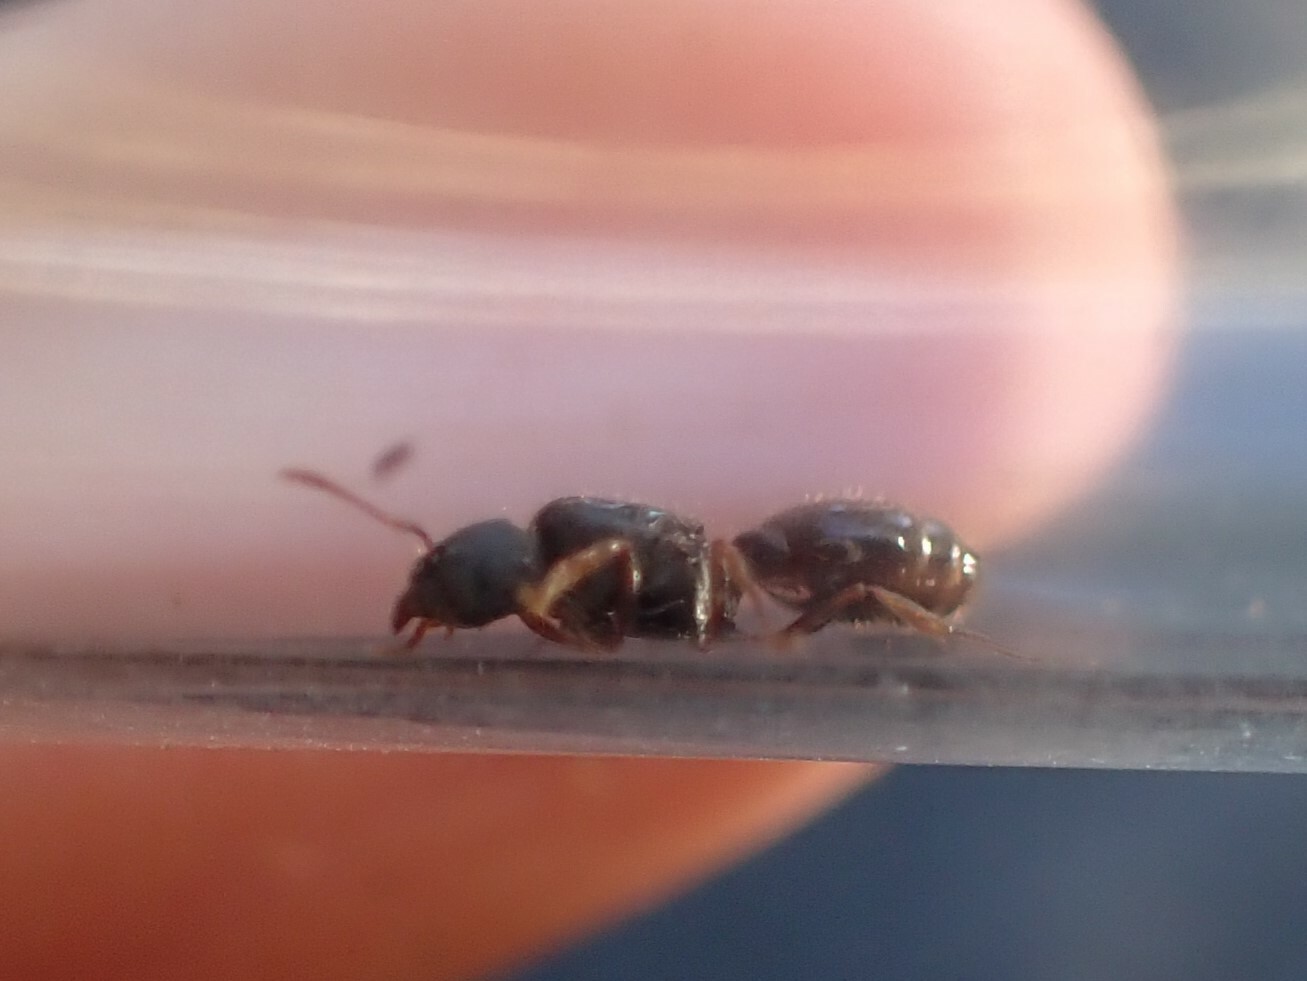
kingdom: Animalia
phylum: Arthropoda
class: Insecta
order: Hymenoptera
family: Formicidae
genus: Tetramorium
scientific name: Tetramorium immigrans
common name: Pavement ant
